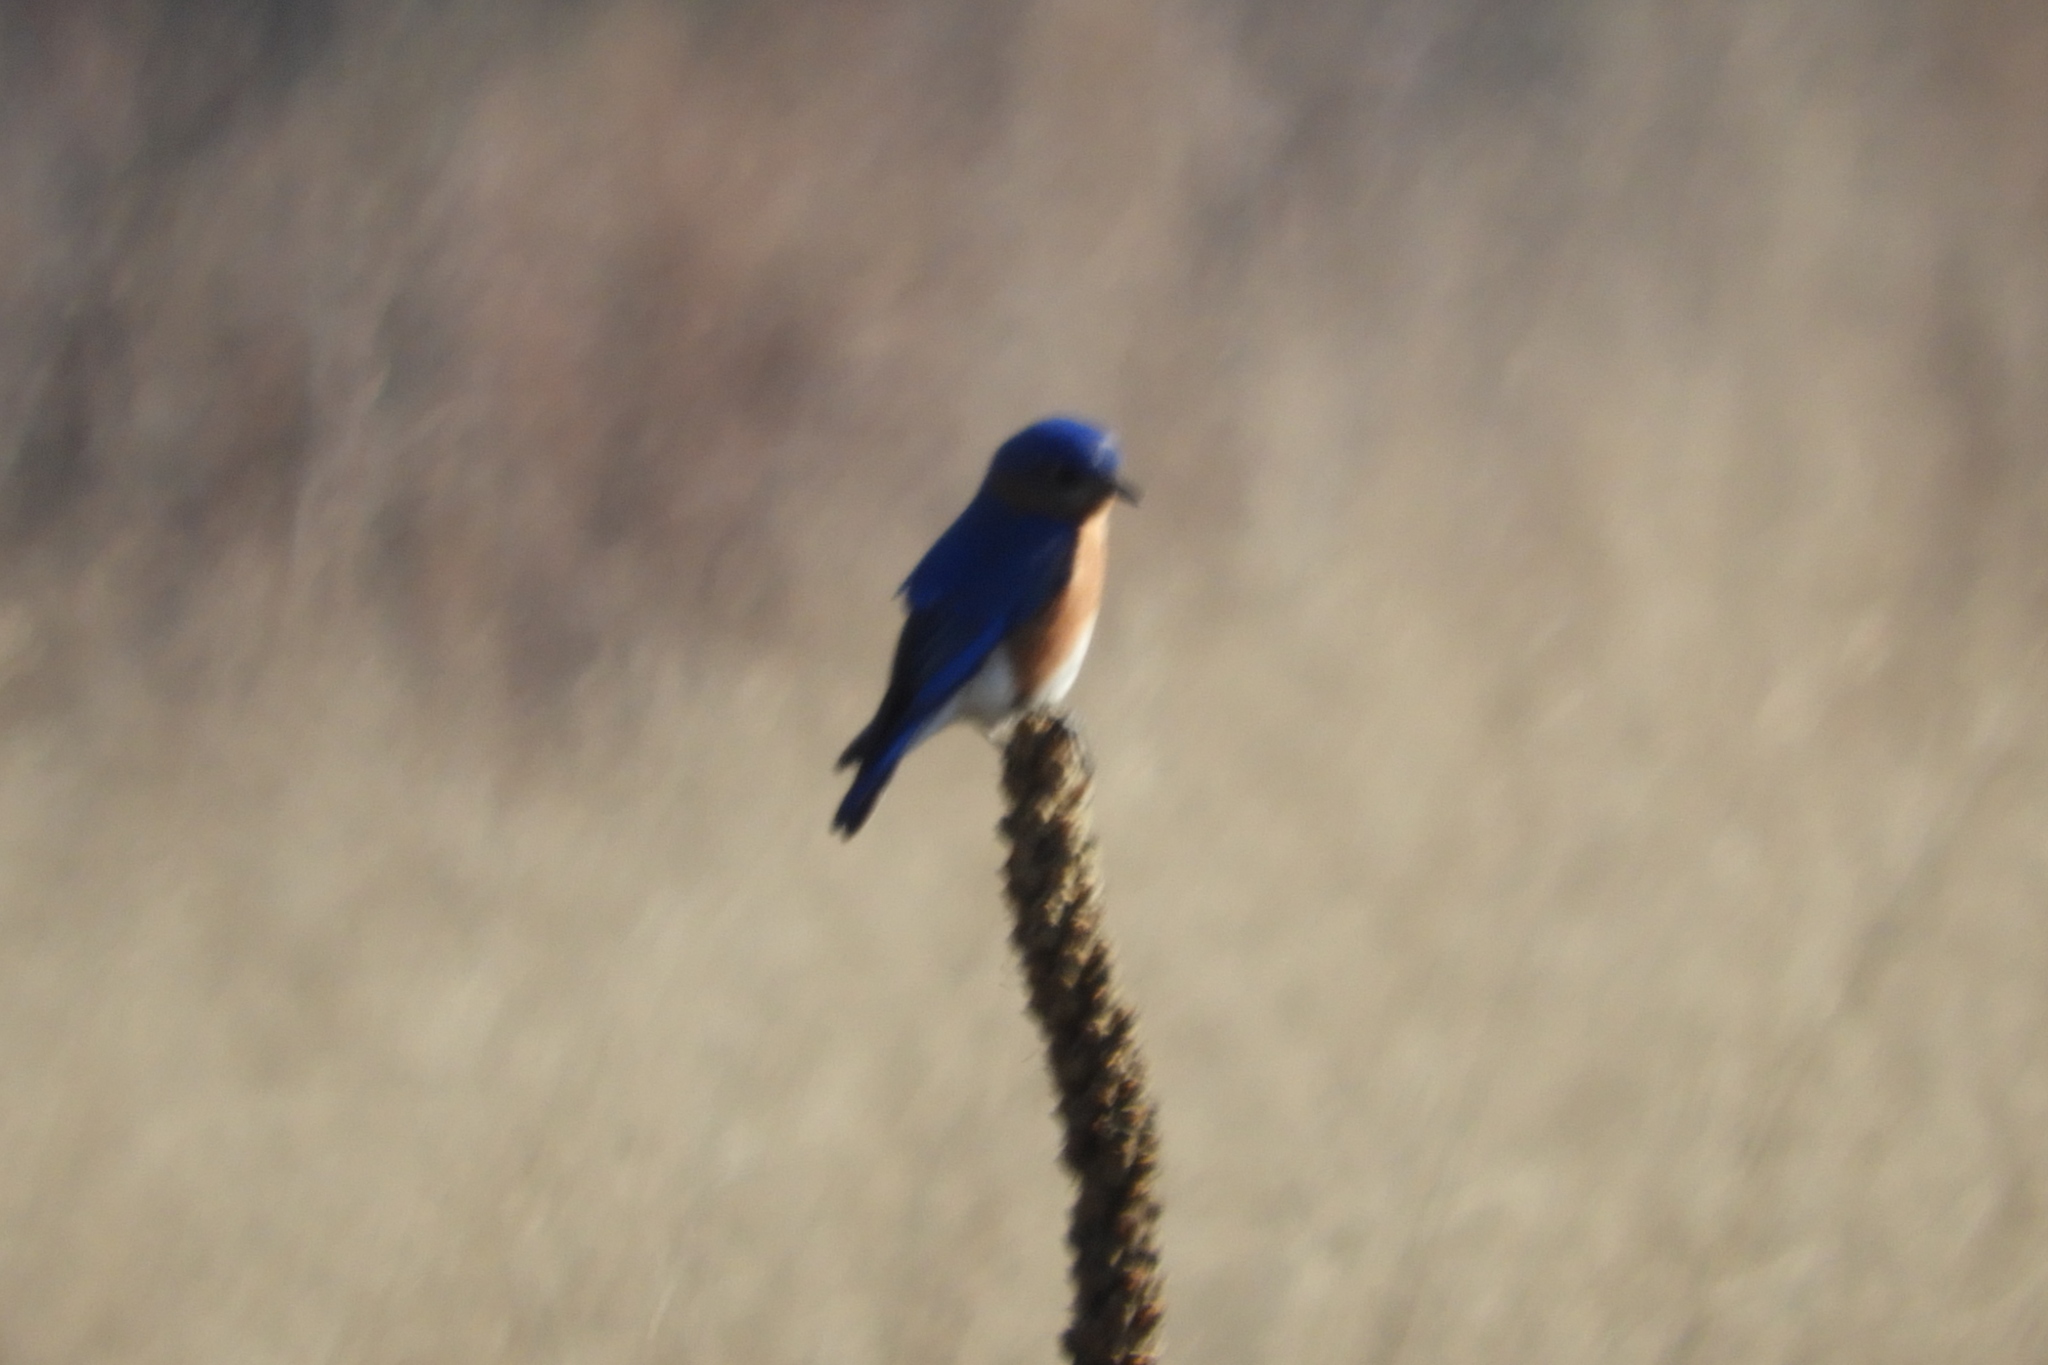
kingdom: Animalia
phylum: Chordata
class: Aves
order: Passeriformes
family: Turdidae
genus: Sialia
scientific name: Sialia sialis
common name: Eastern bluebird
